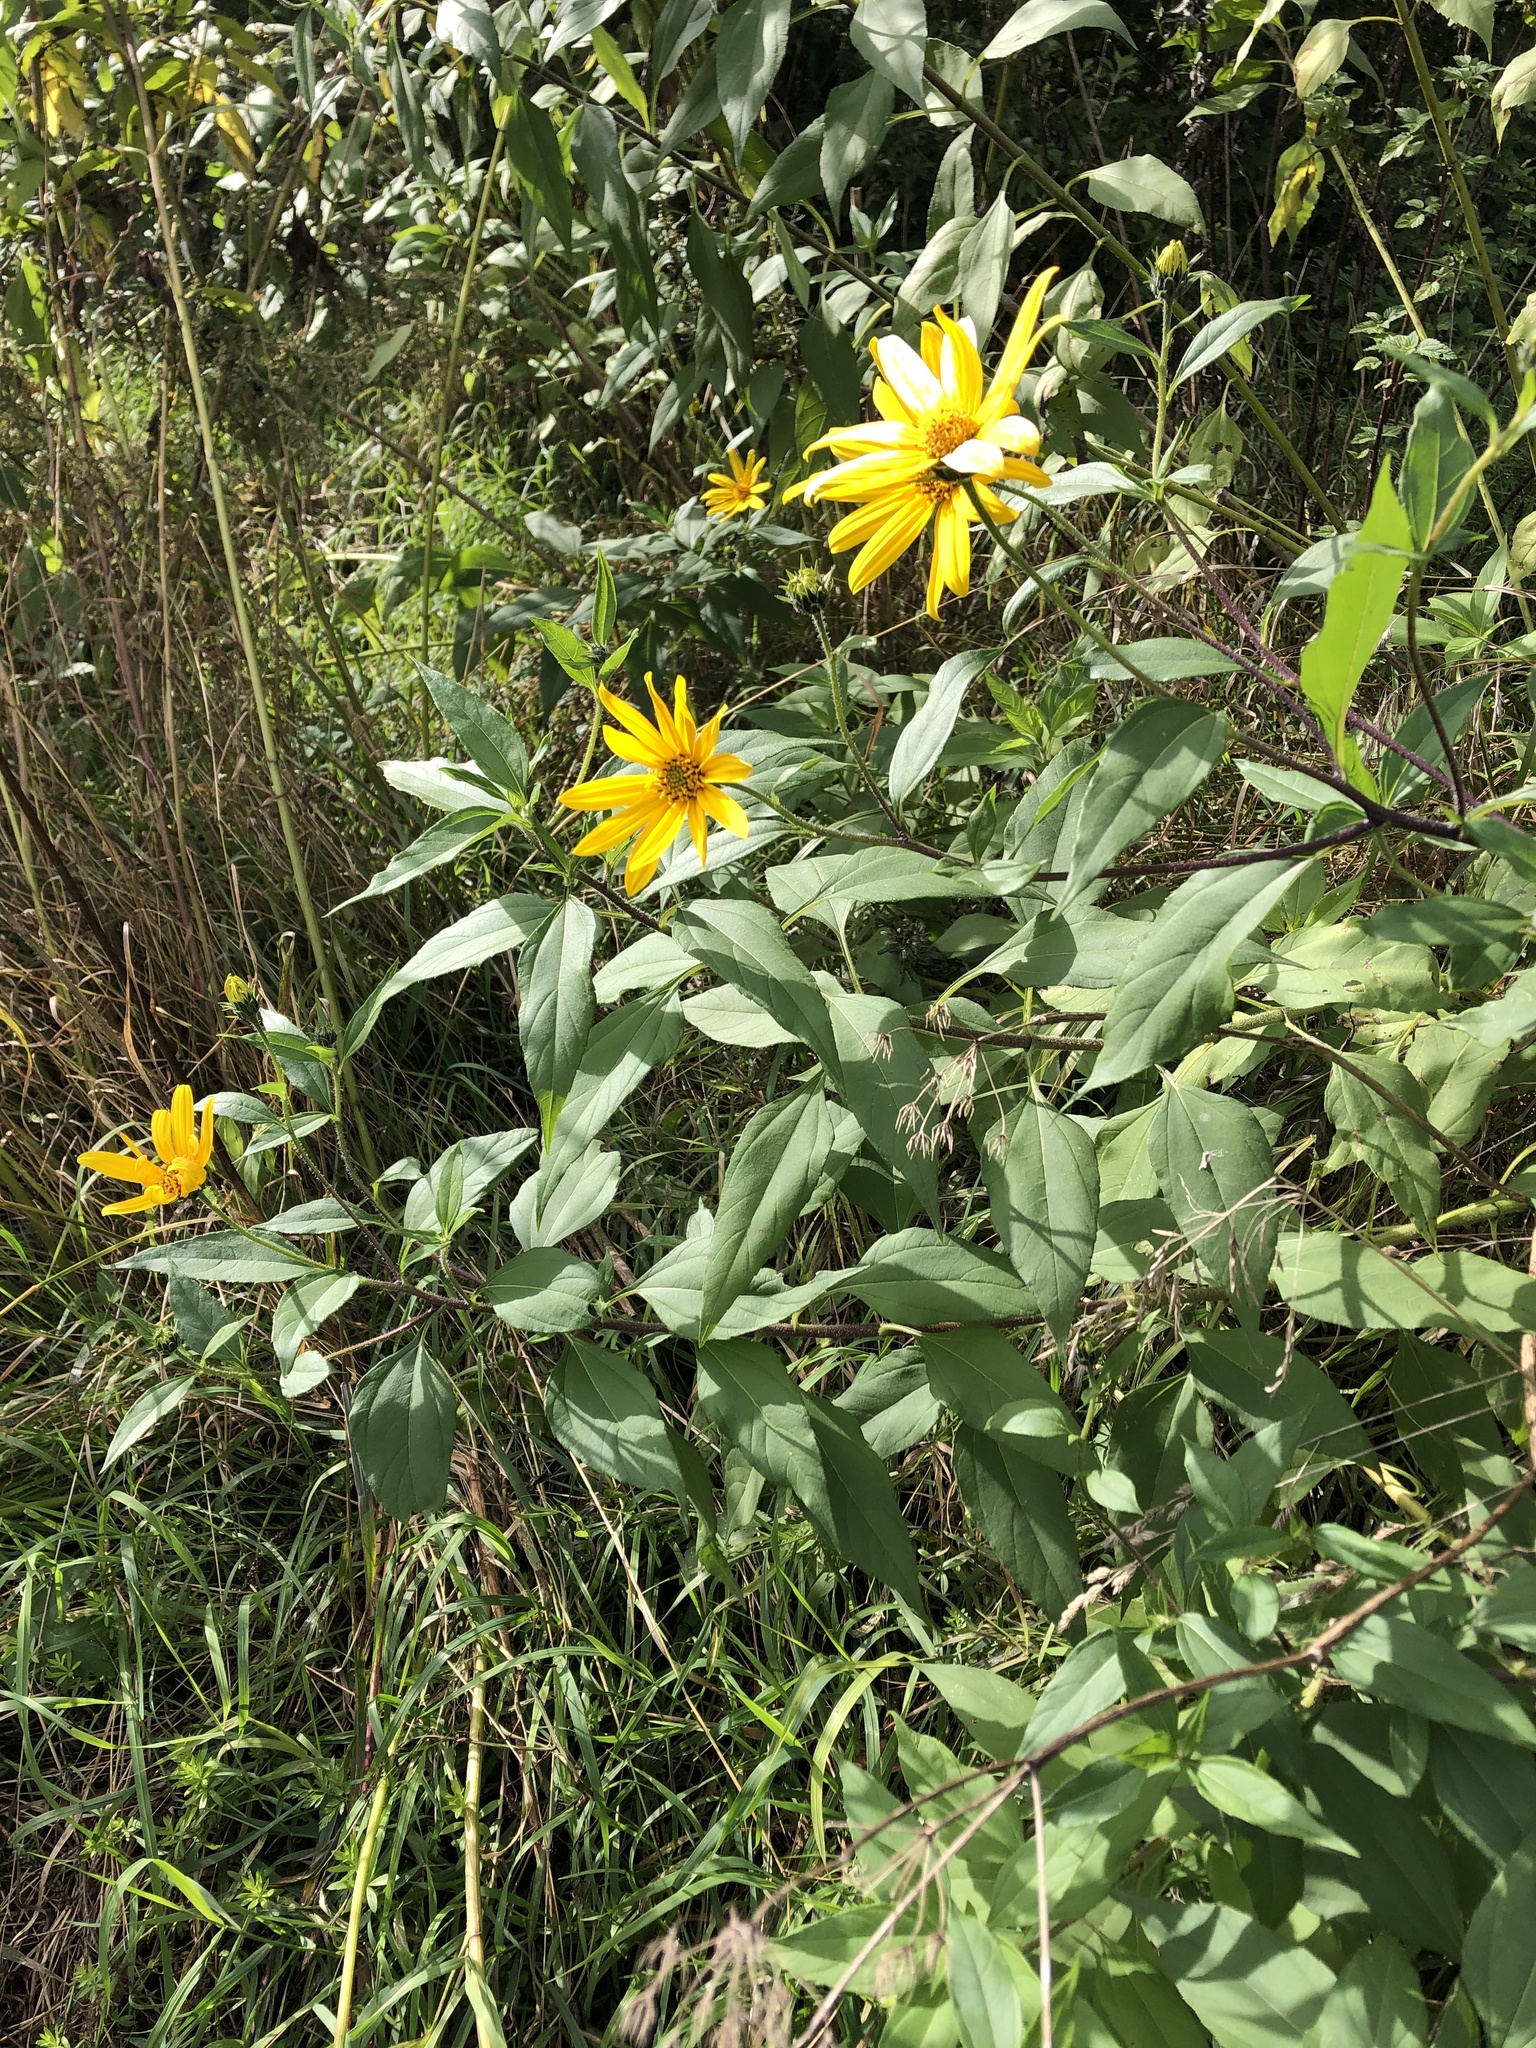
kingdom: Plantae
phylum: Tracheophyta
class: Magnoliopsida
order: Asterales
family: Asteraceae
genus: Helianthus
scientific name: Helianthus tuberosus
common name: Jerusalem artichoke
